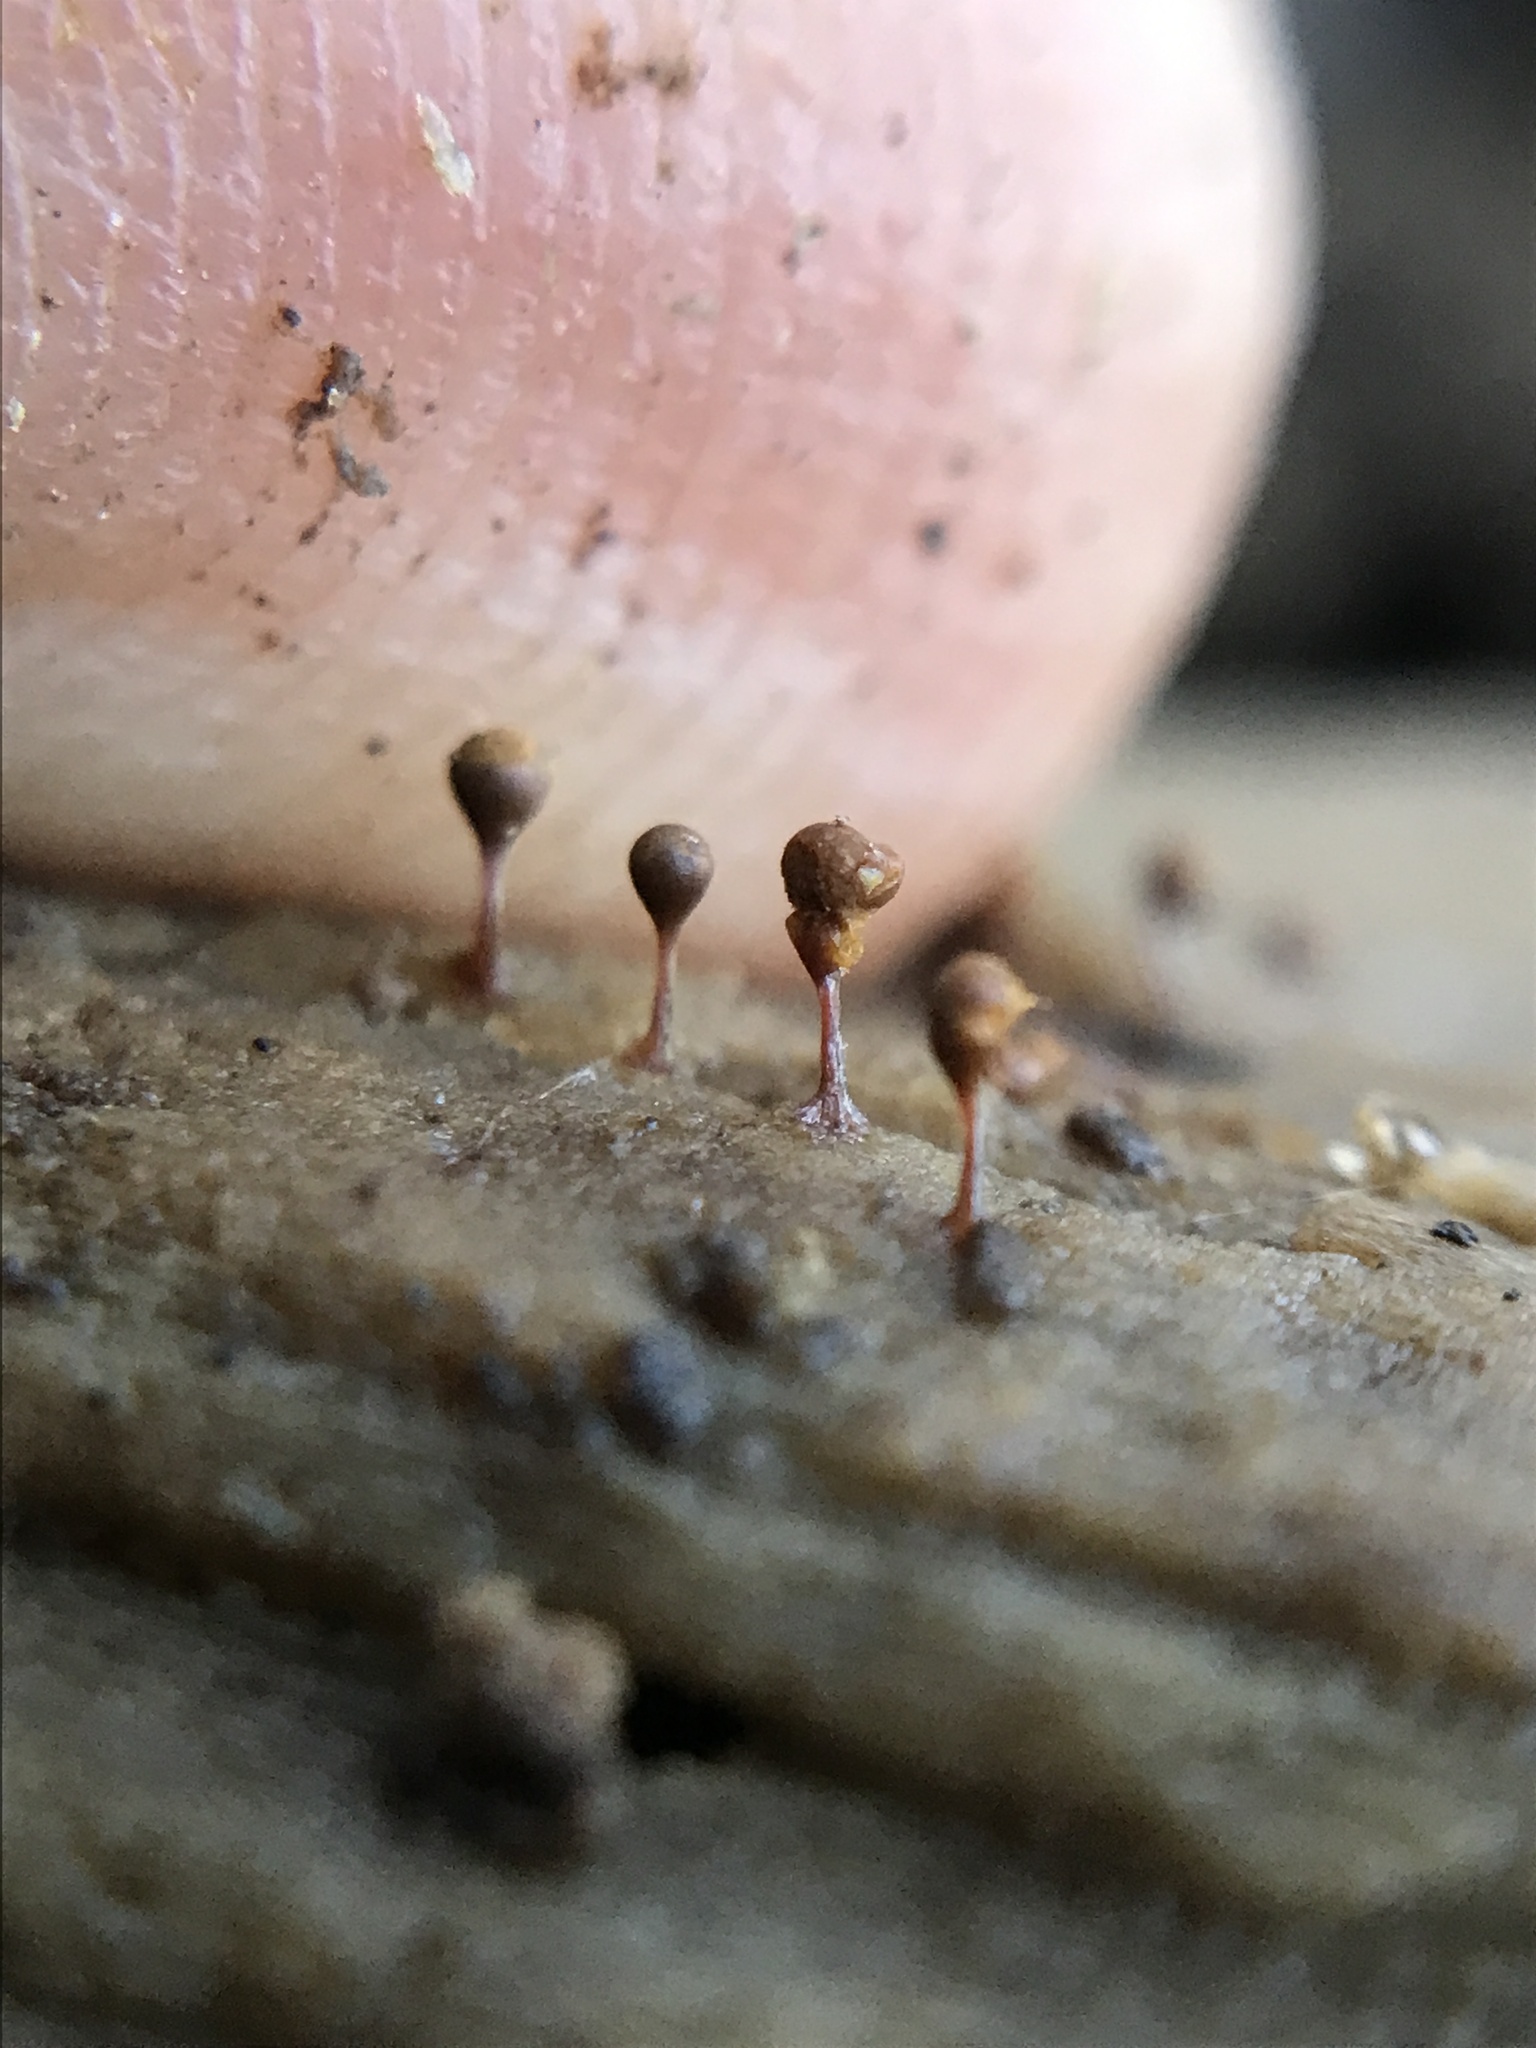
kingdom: Protozoa
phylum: Mycetozoa
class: Myxomycetes
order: Trichiales
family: Arcyriaceae
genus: Hemitrichia
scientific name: Hemitrichia calyculata
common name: Push pin slime mold
